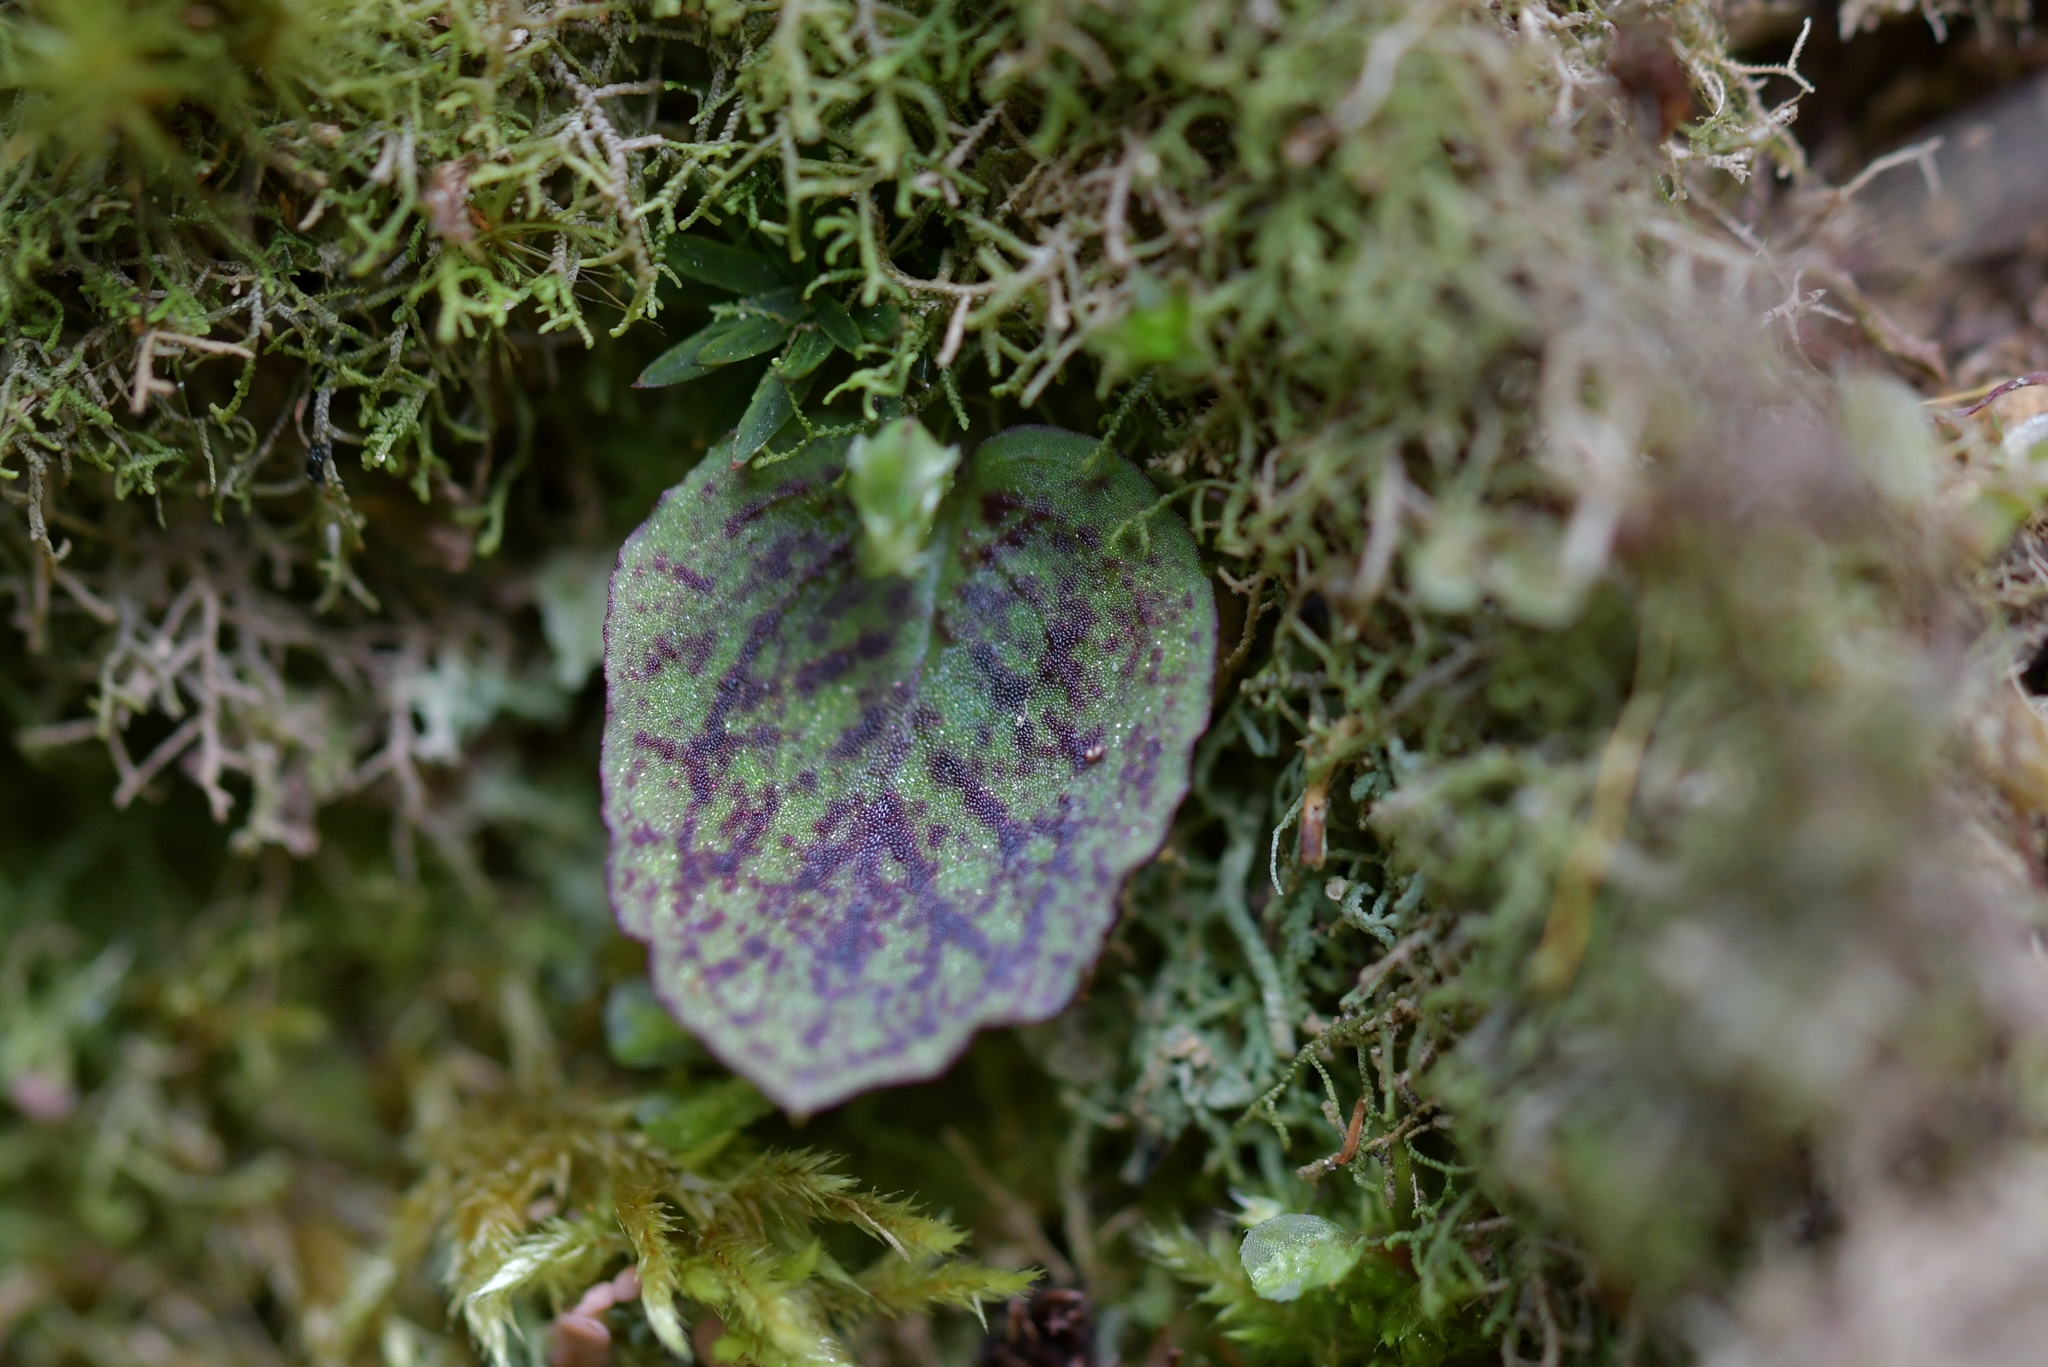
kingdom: Plantae
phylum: Tracheophyta
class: Liliopsida
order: Asparagales
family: Orchidaceae
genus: Corybas
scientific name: Corybas oblongus
